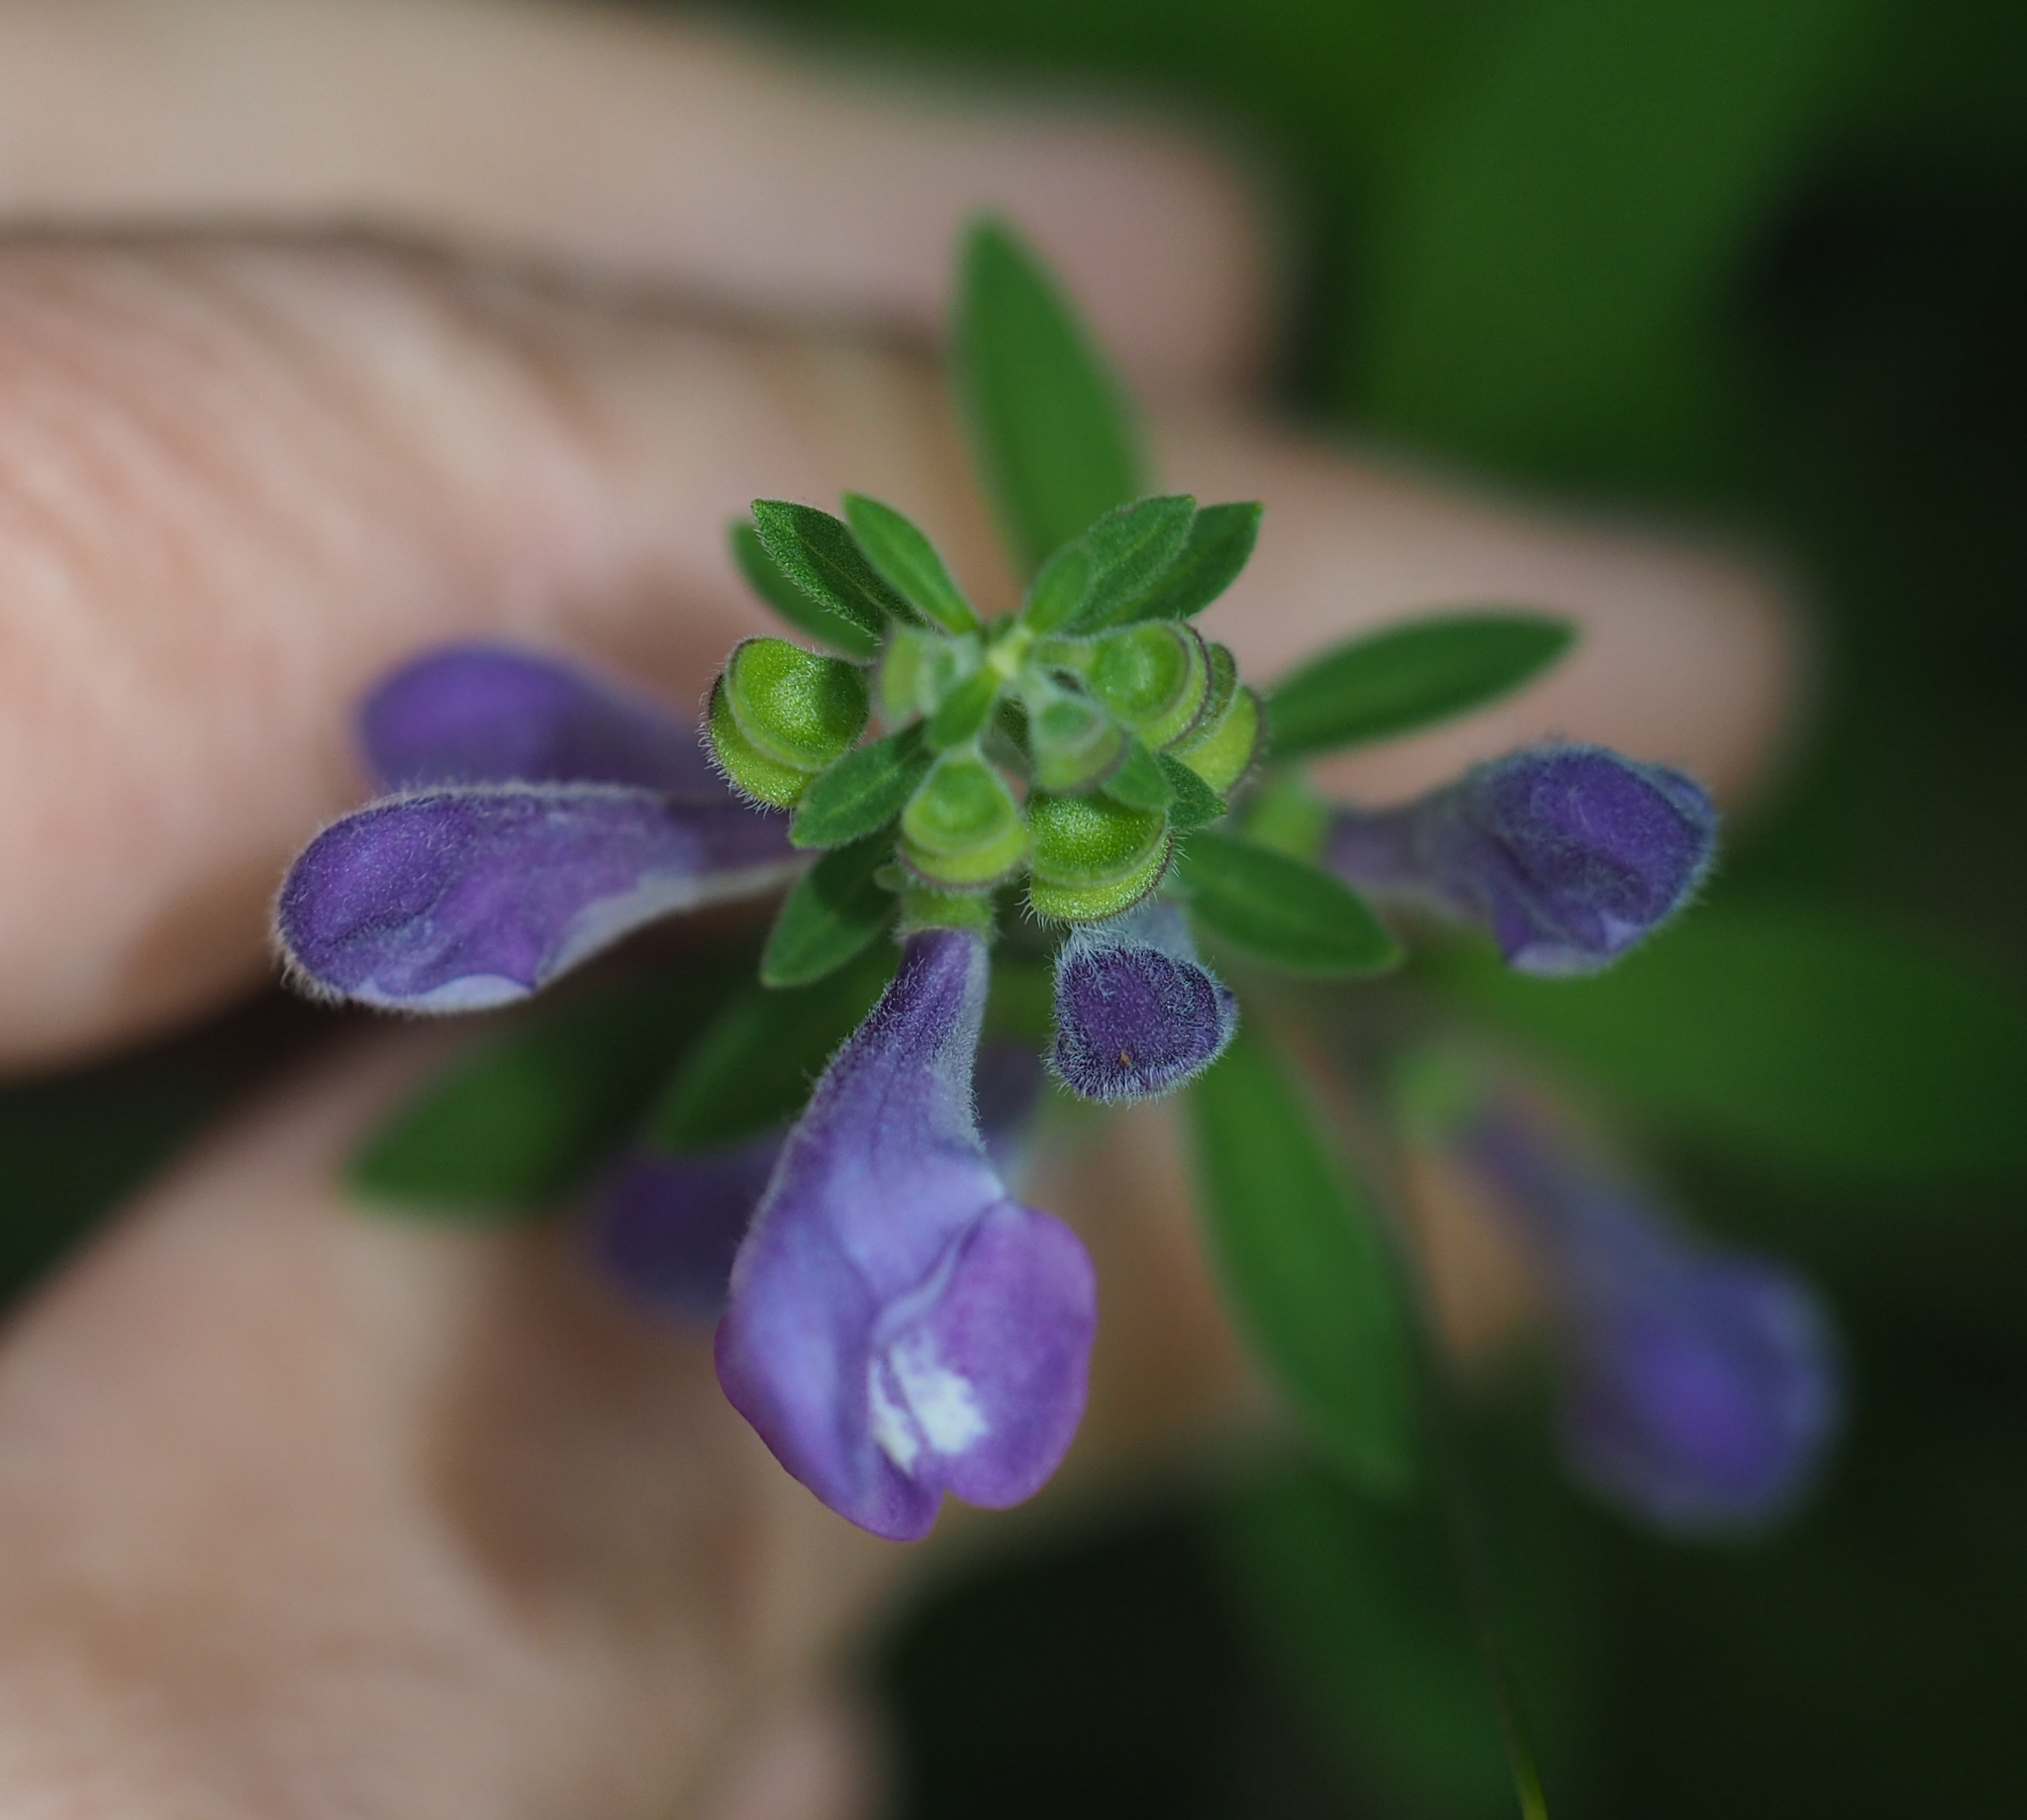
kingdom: Plantae
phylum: Tracheophyta
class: Magnoliopsida
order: Lamiales
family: Lamiaceae
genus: Scutellaria
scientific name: Scutellaria integrifolia
